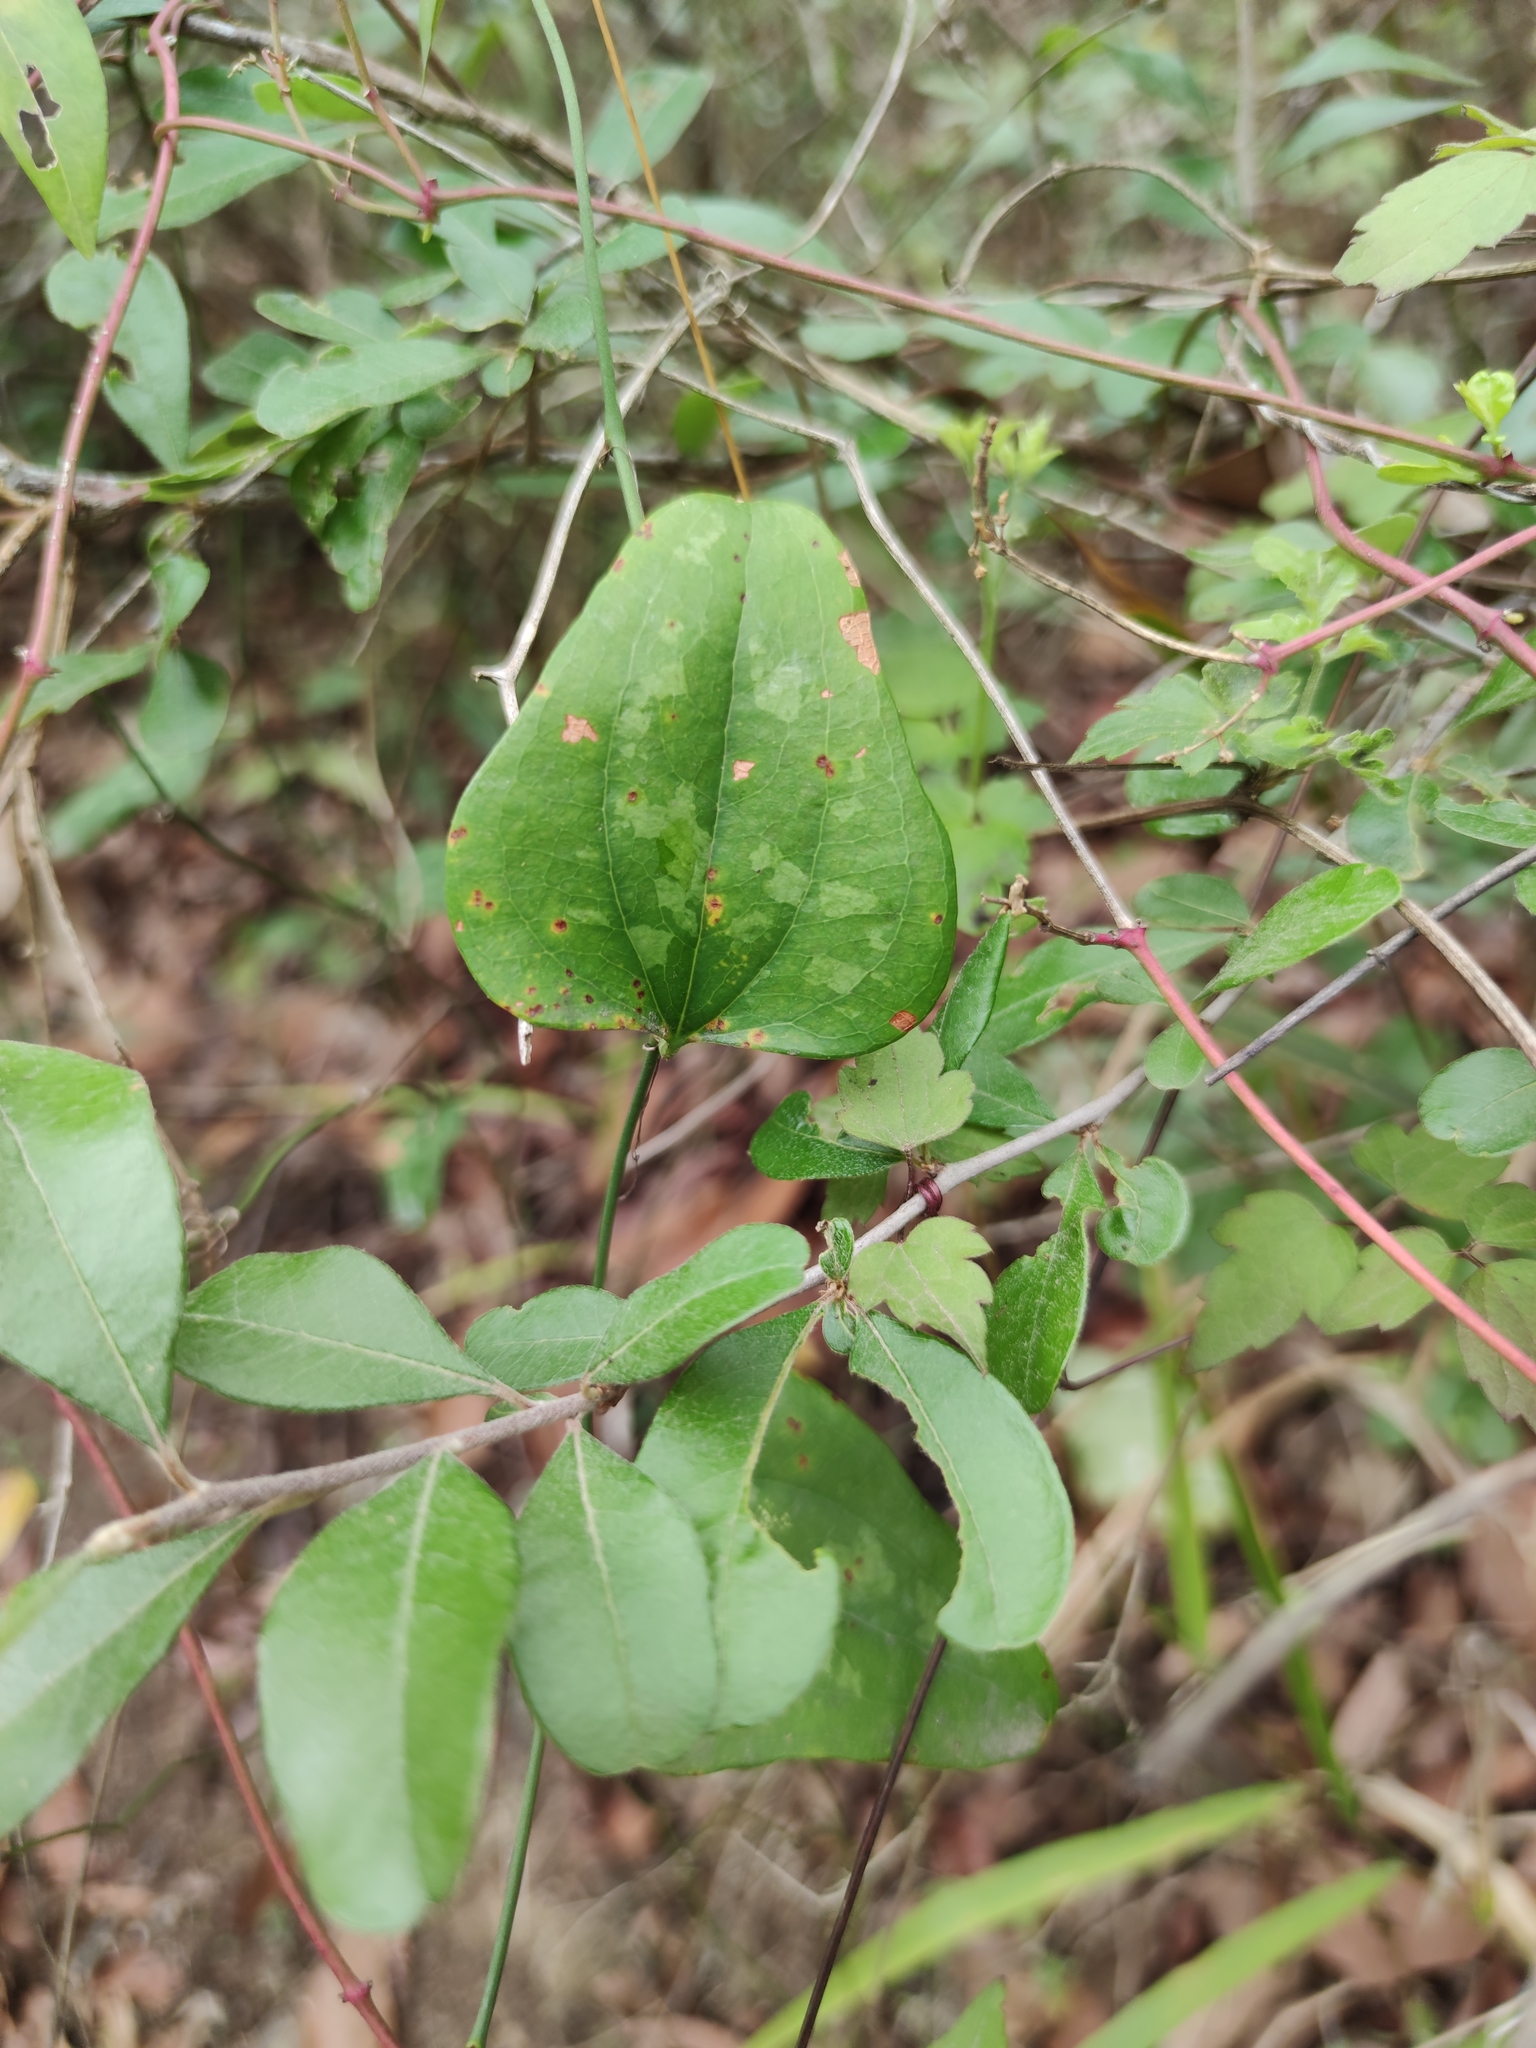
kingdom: Plantae
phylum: Tracheophyta
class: Liliopsida
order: Liliales
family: Smilacaceae
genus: Smilax
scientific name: Smilax bona-nox
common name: Catbrier
